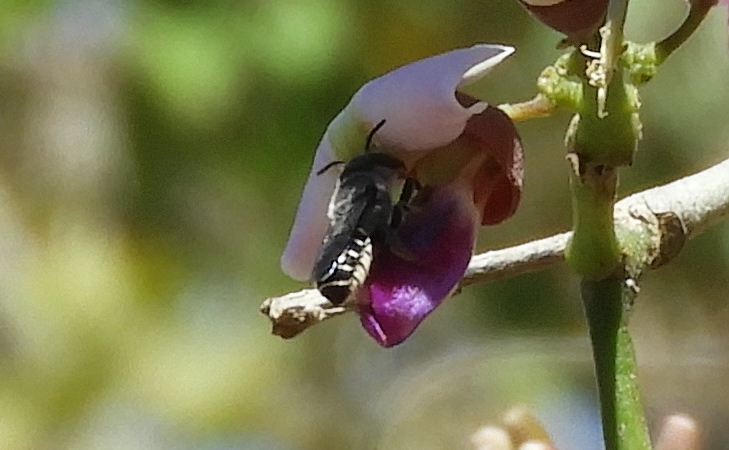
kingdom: Animalia
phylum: Arthropoda
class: Insecta
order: Hymenoptera
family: Megachilidae
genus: Megachile
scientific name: Megachile
